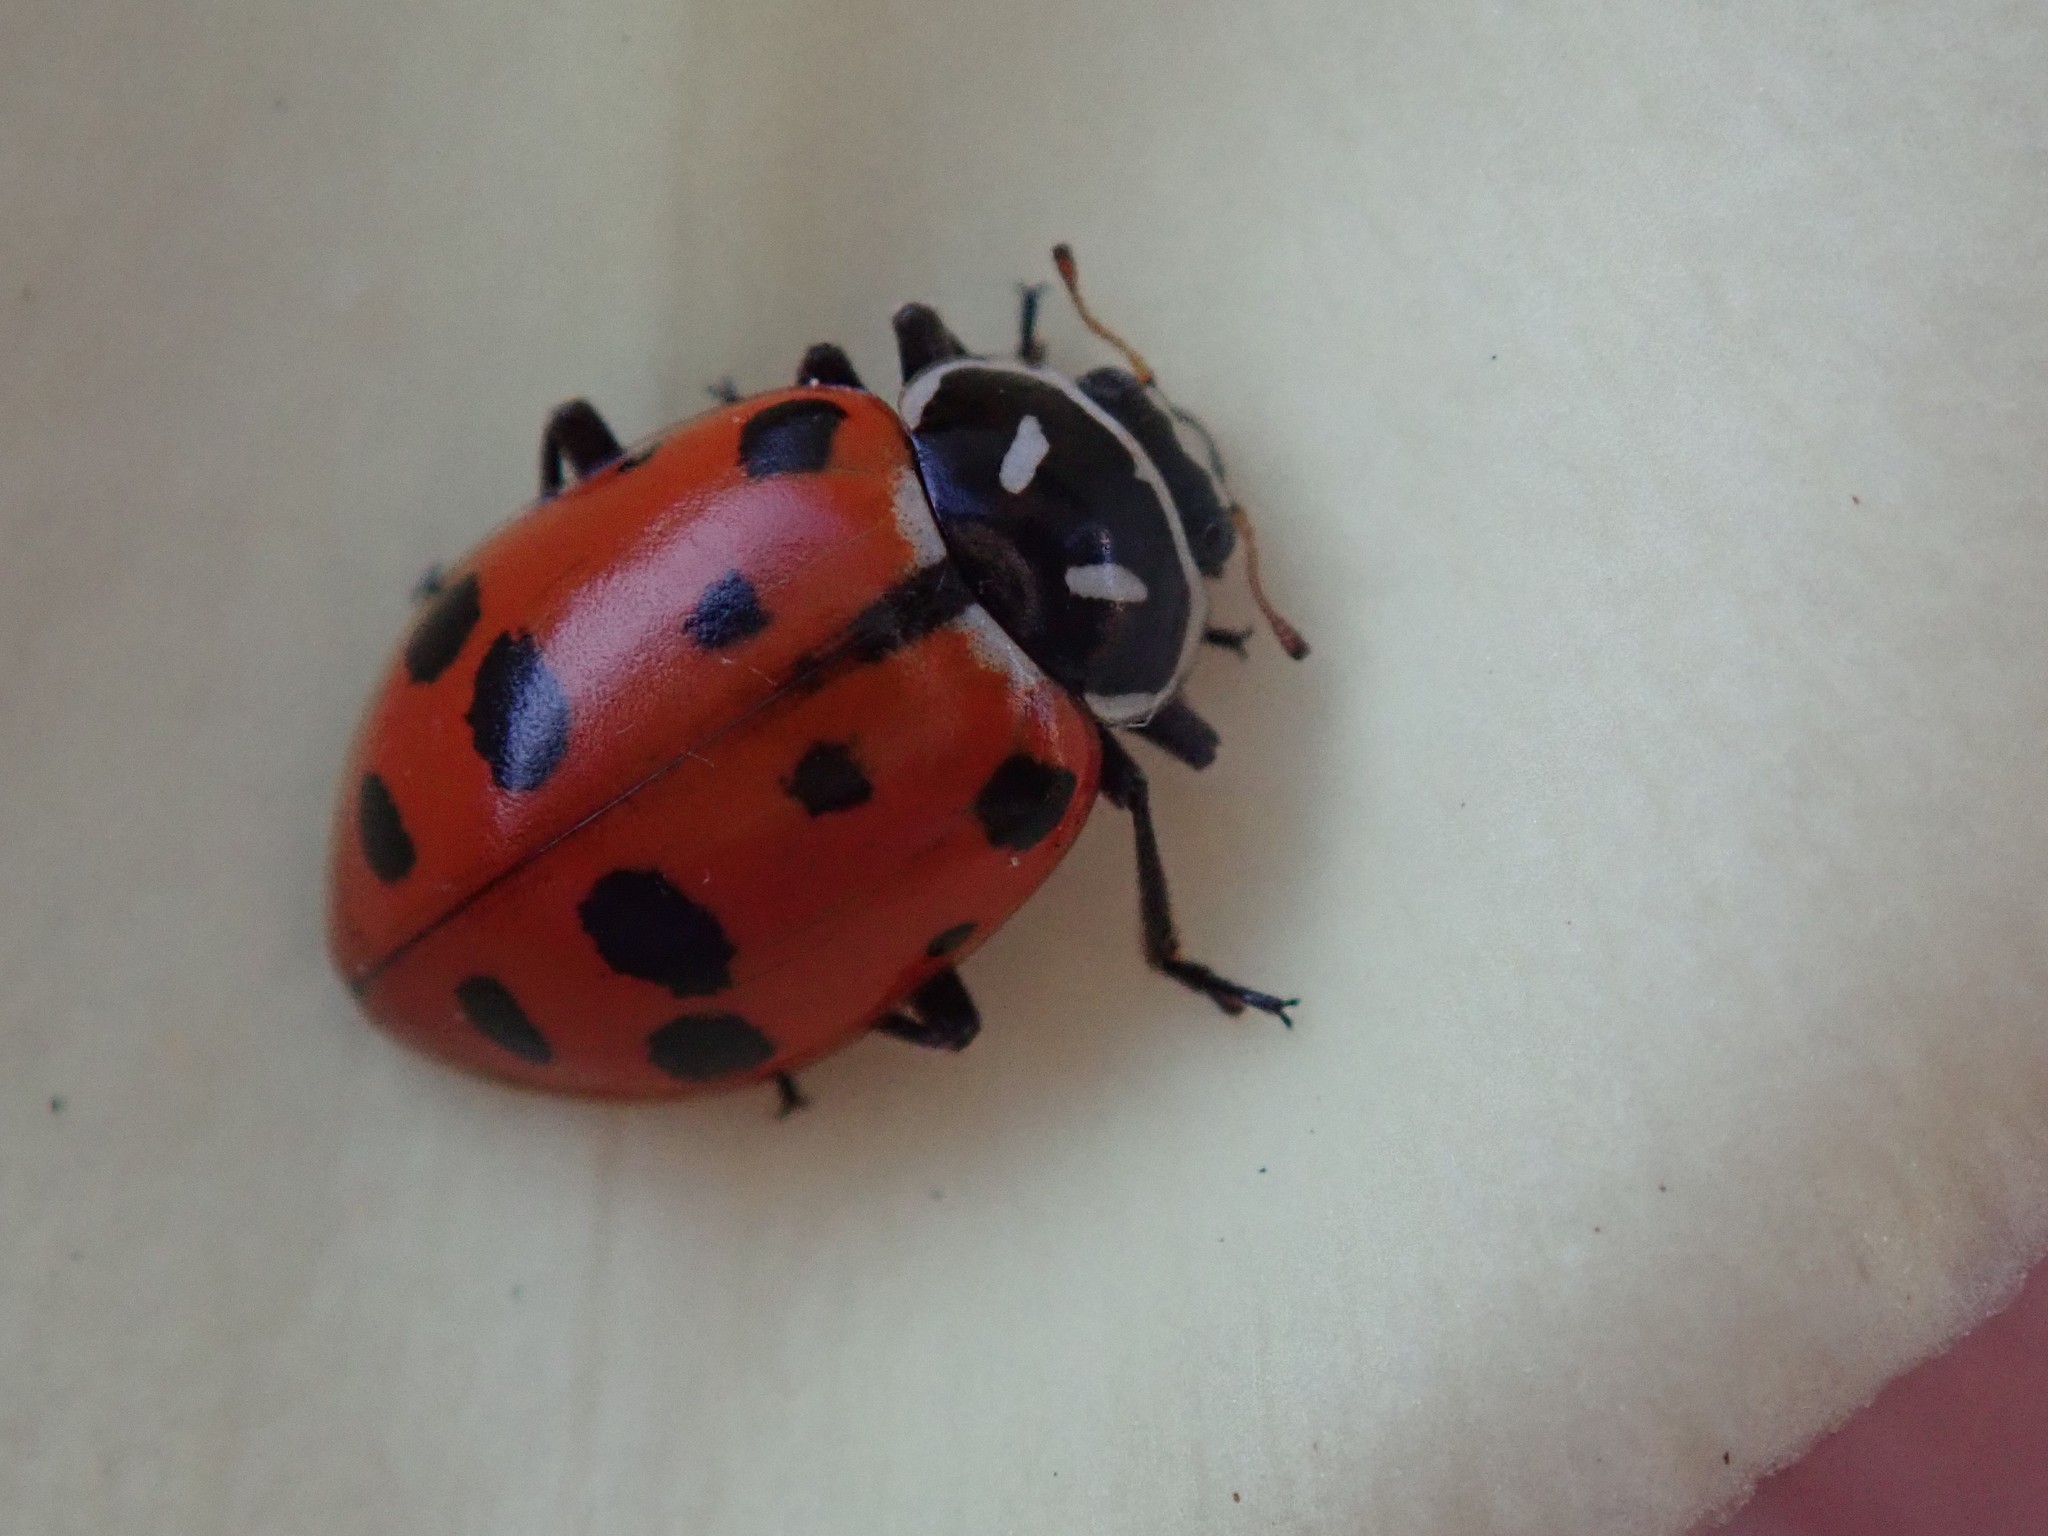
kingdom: Animalia
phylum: Arthropoda
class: Insecta
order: Coleoptera
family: Coccinellidae
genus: Hippodamia
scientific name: Hippodamia convergens
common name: Convergent lady beetle
